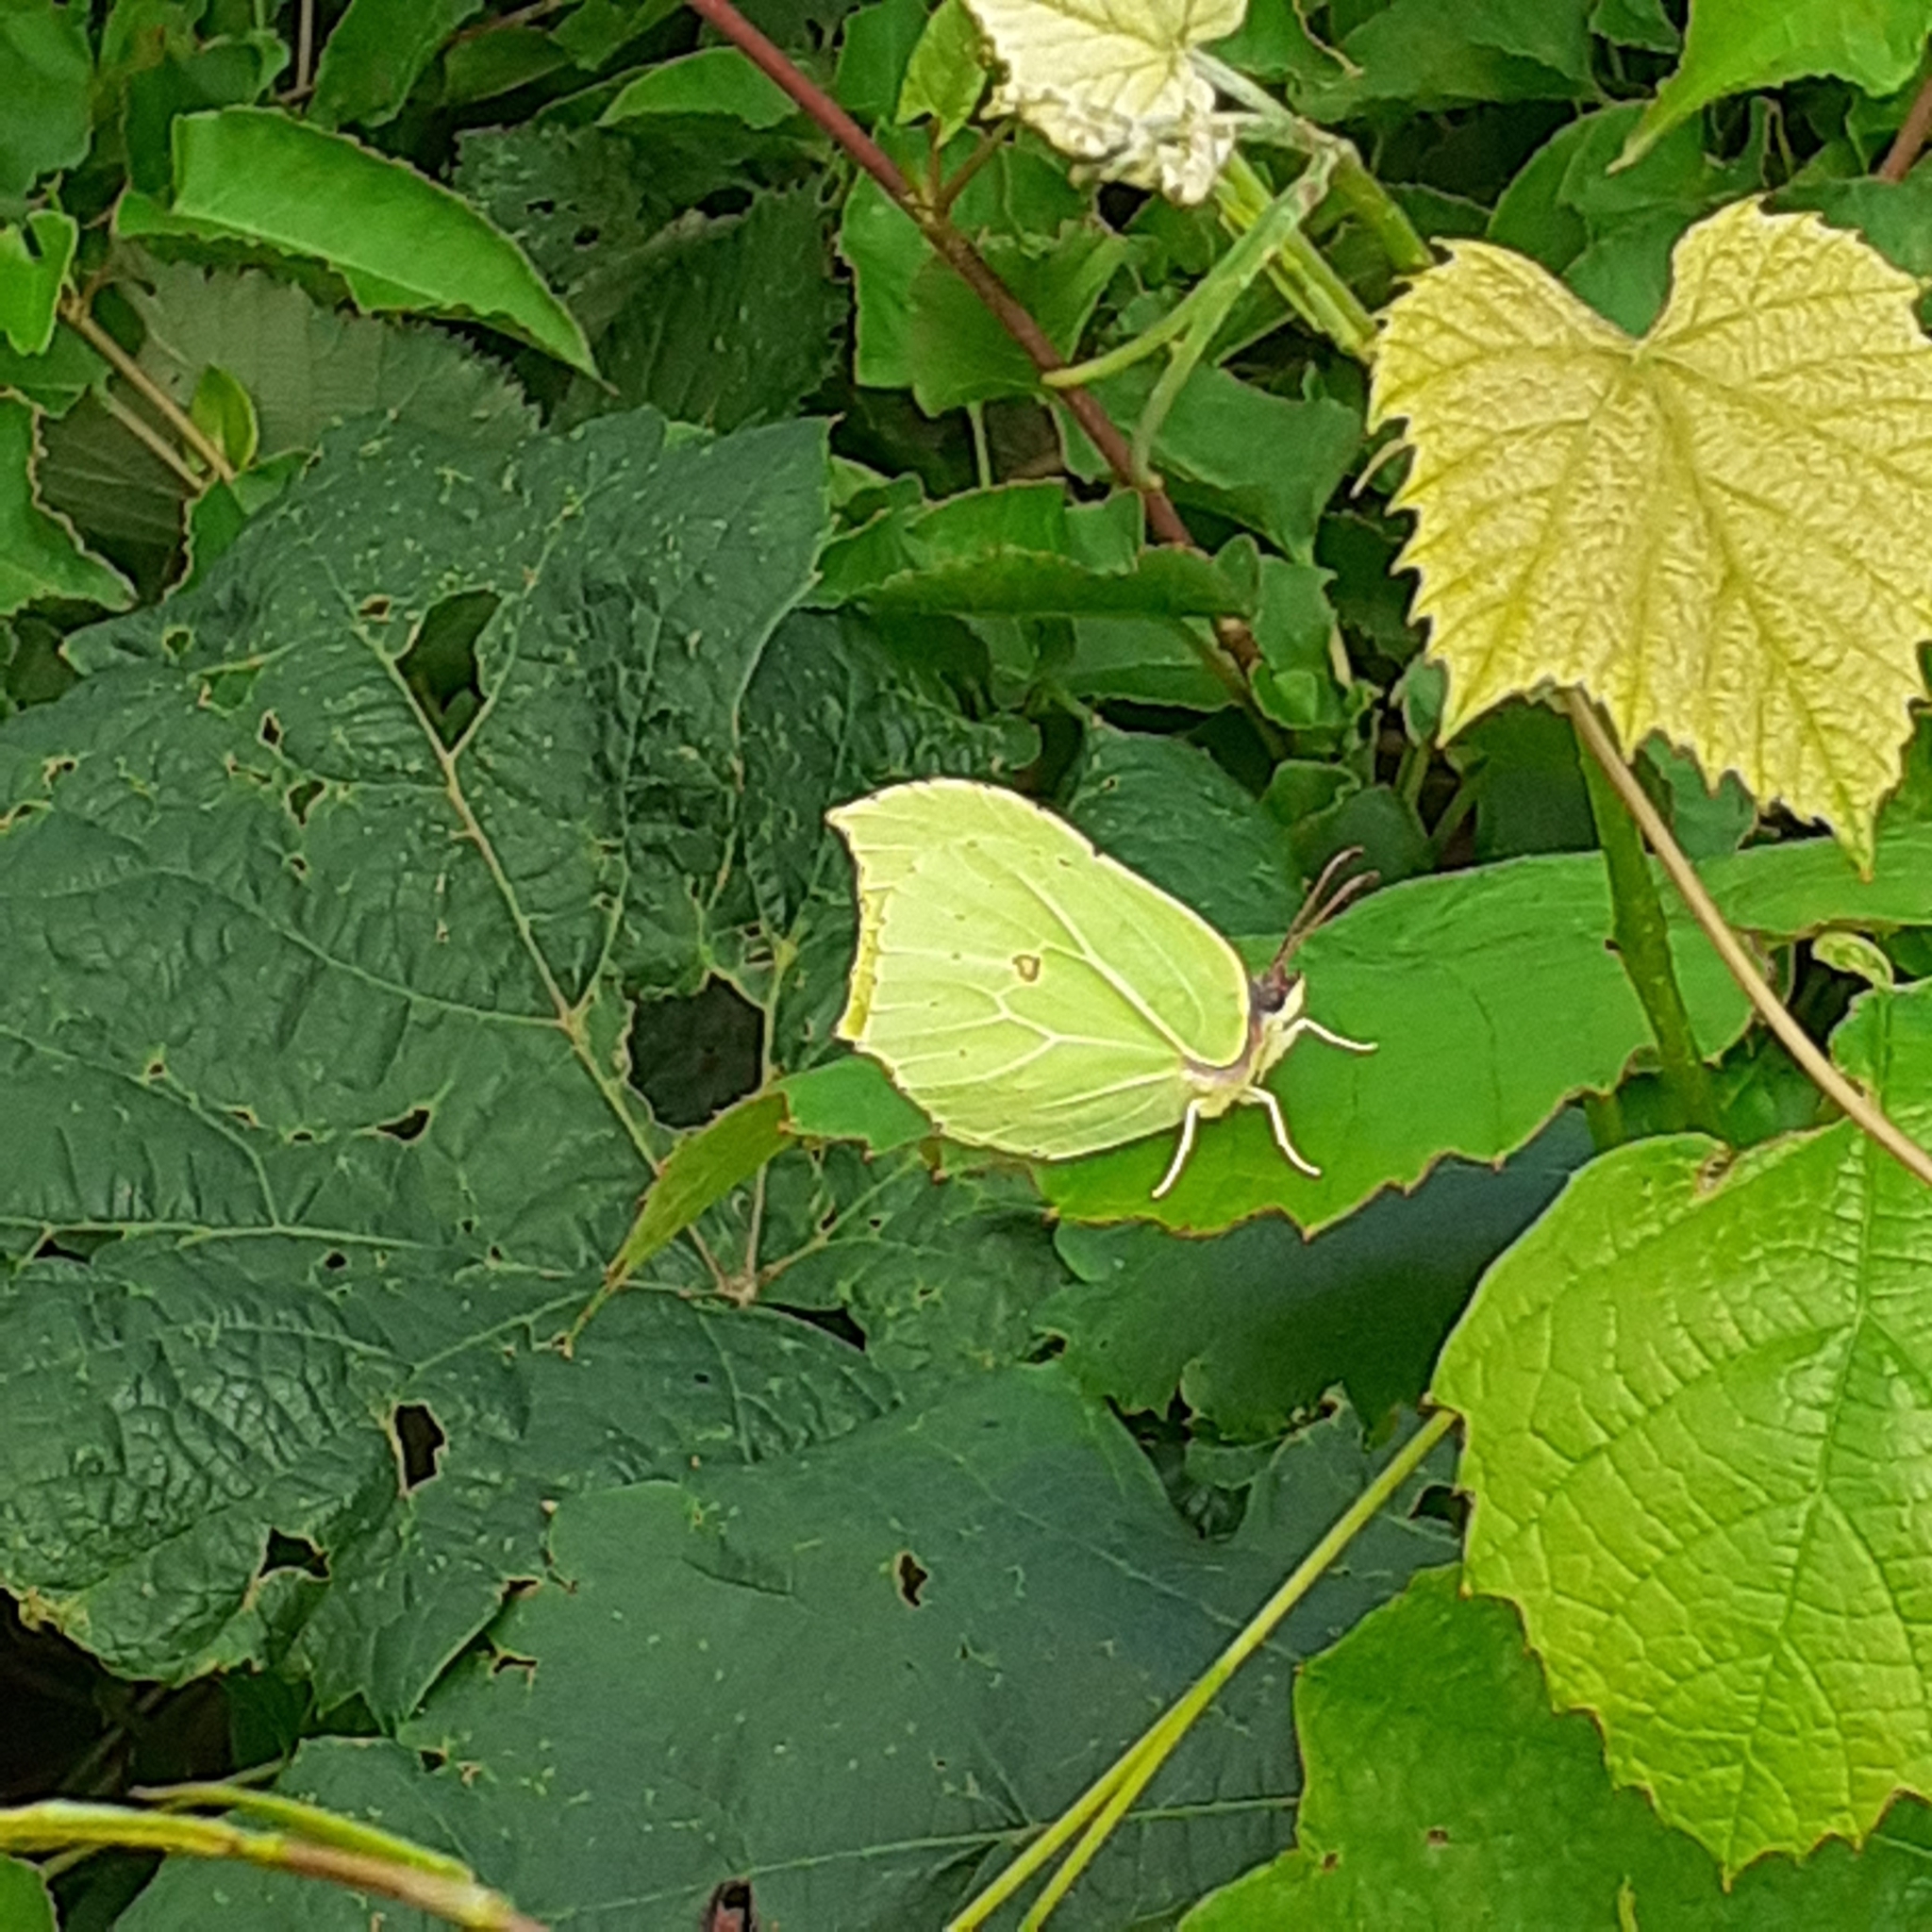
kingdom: Animalia
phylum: Arthropoda
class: Insecta
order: Lepidoptera
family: Pieridae
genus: Gonepteryx
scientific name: Gonepteryx rhamni
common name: Brimstone
